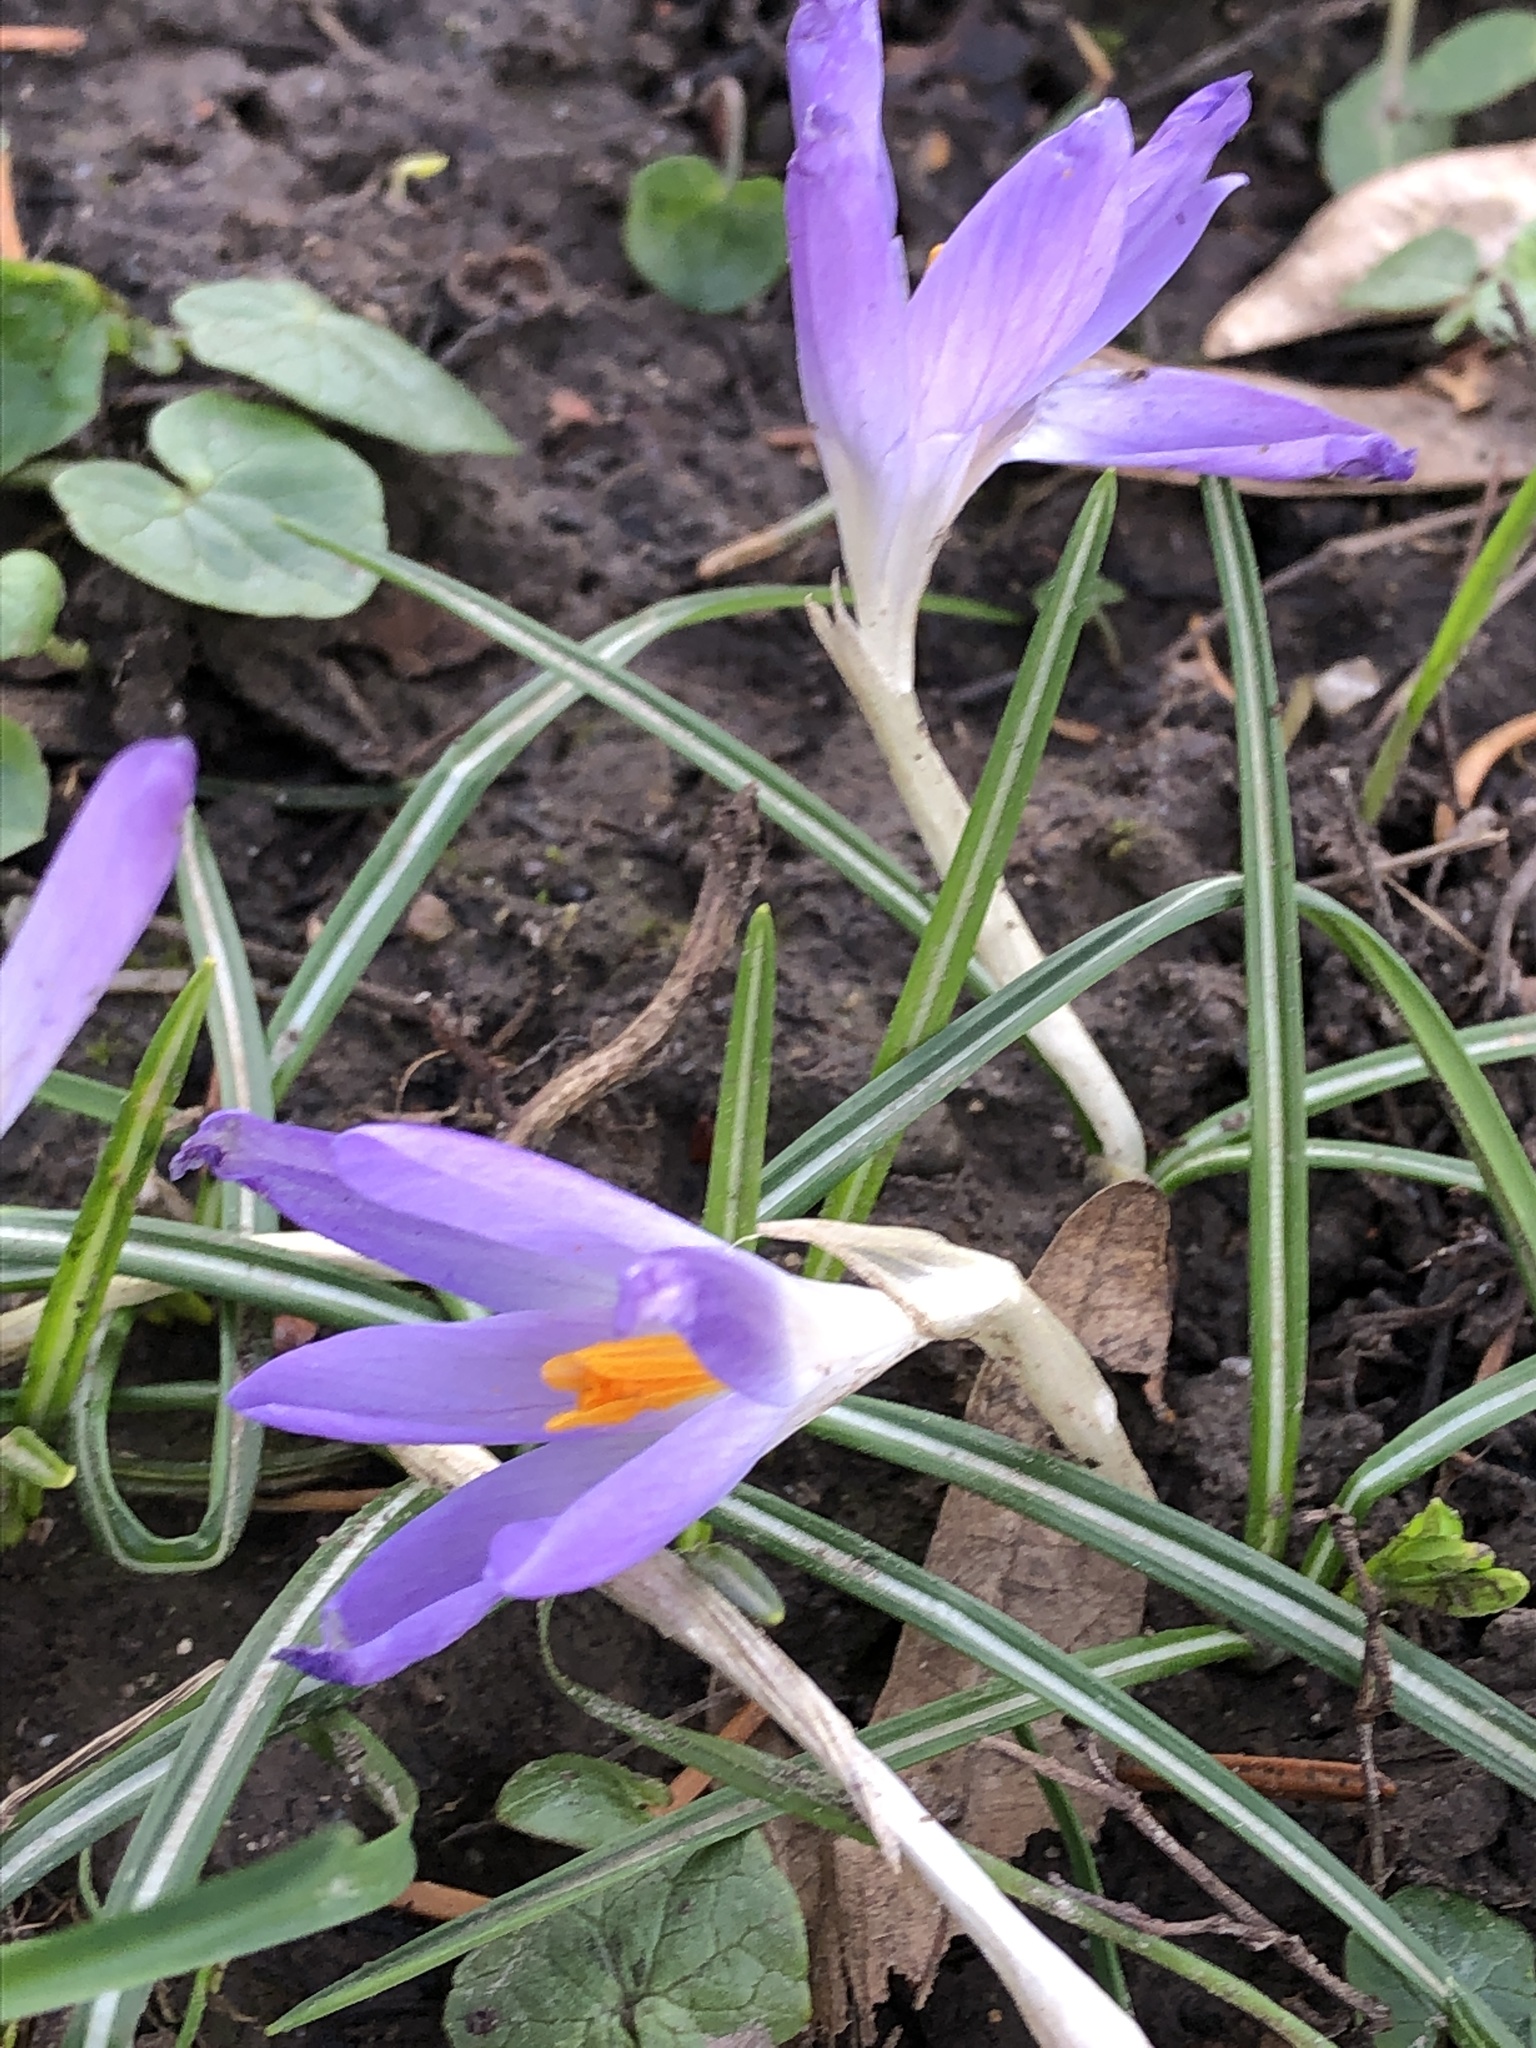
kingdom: Plantae
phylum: Tracheophyta
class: Liliopsida
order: Asparagales
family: Iridaceae
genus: Crocus
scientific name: Crocus tommasinianus
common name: Early crocus
